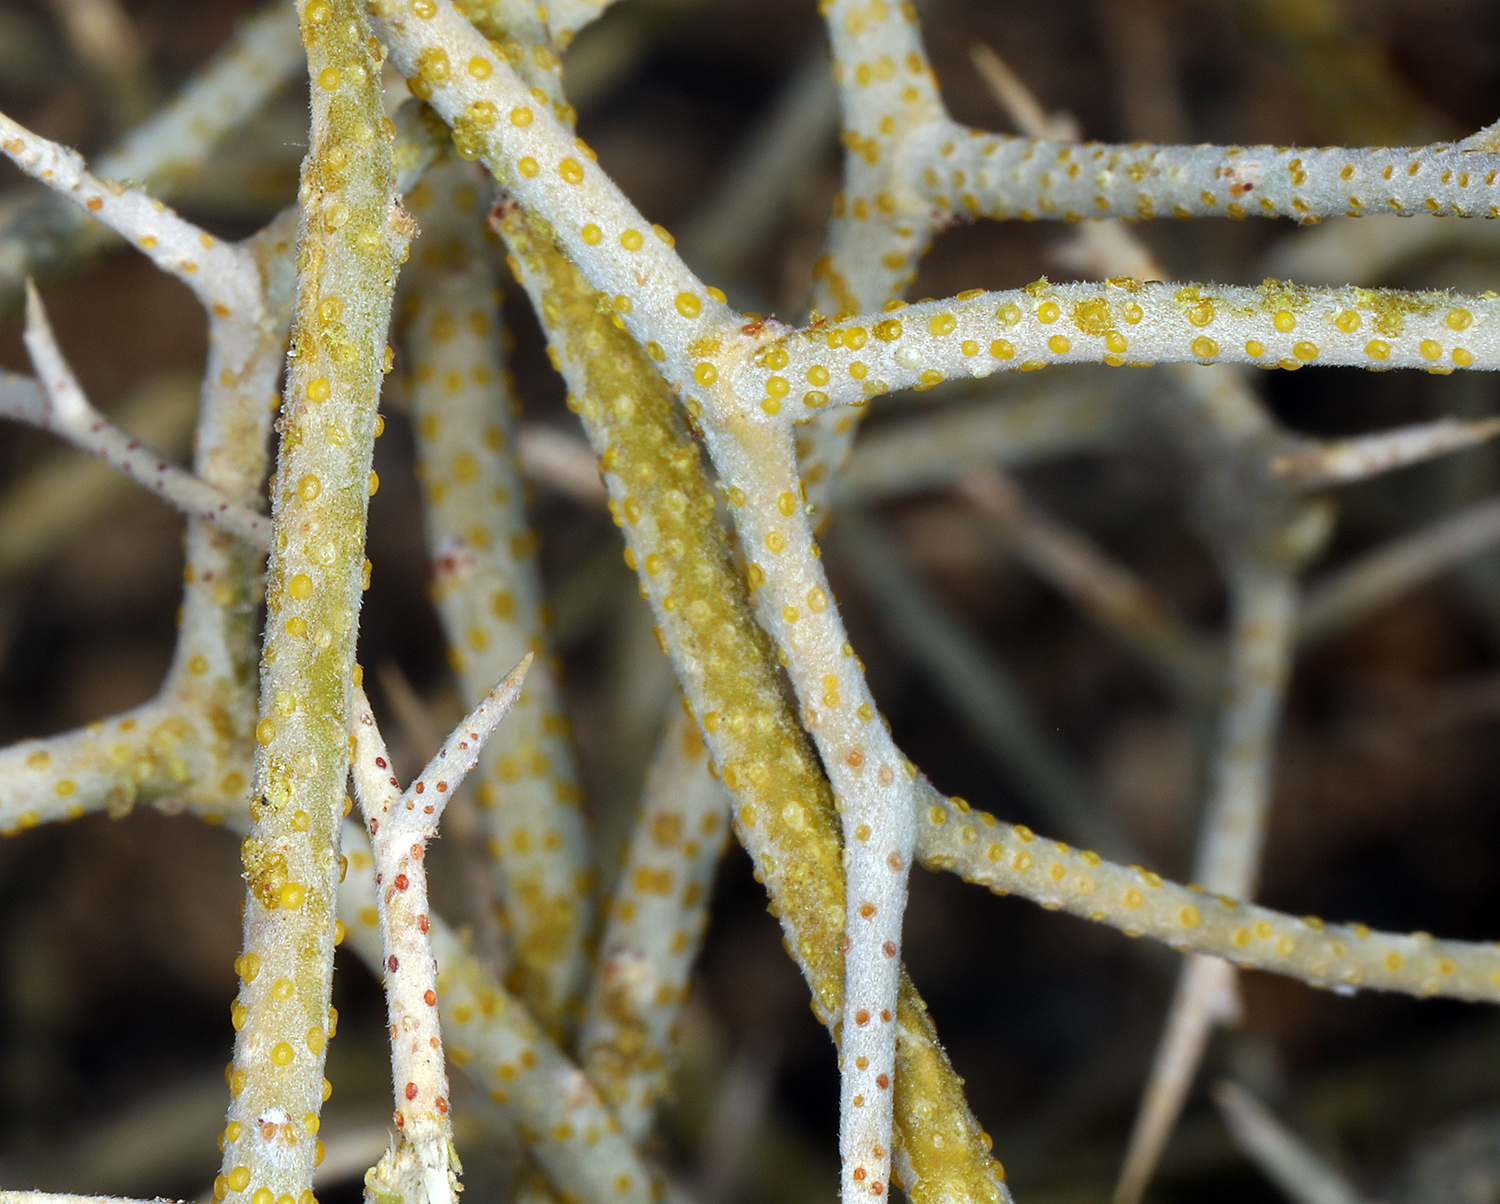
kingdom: Plantae
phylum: Tracheophyta
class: Magnoliopsida
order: Fabales
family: Fabaceae
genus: Psorothamnus
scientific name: Psorothamnus polydenius
